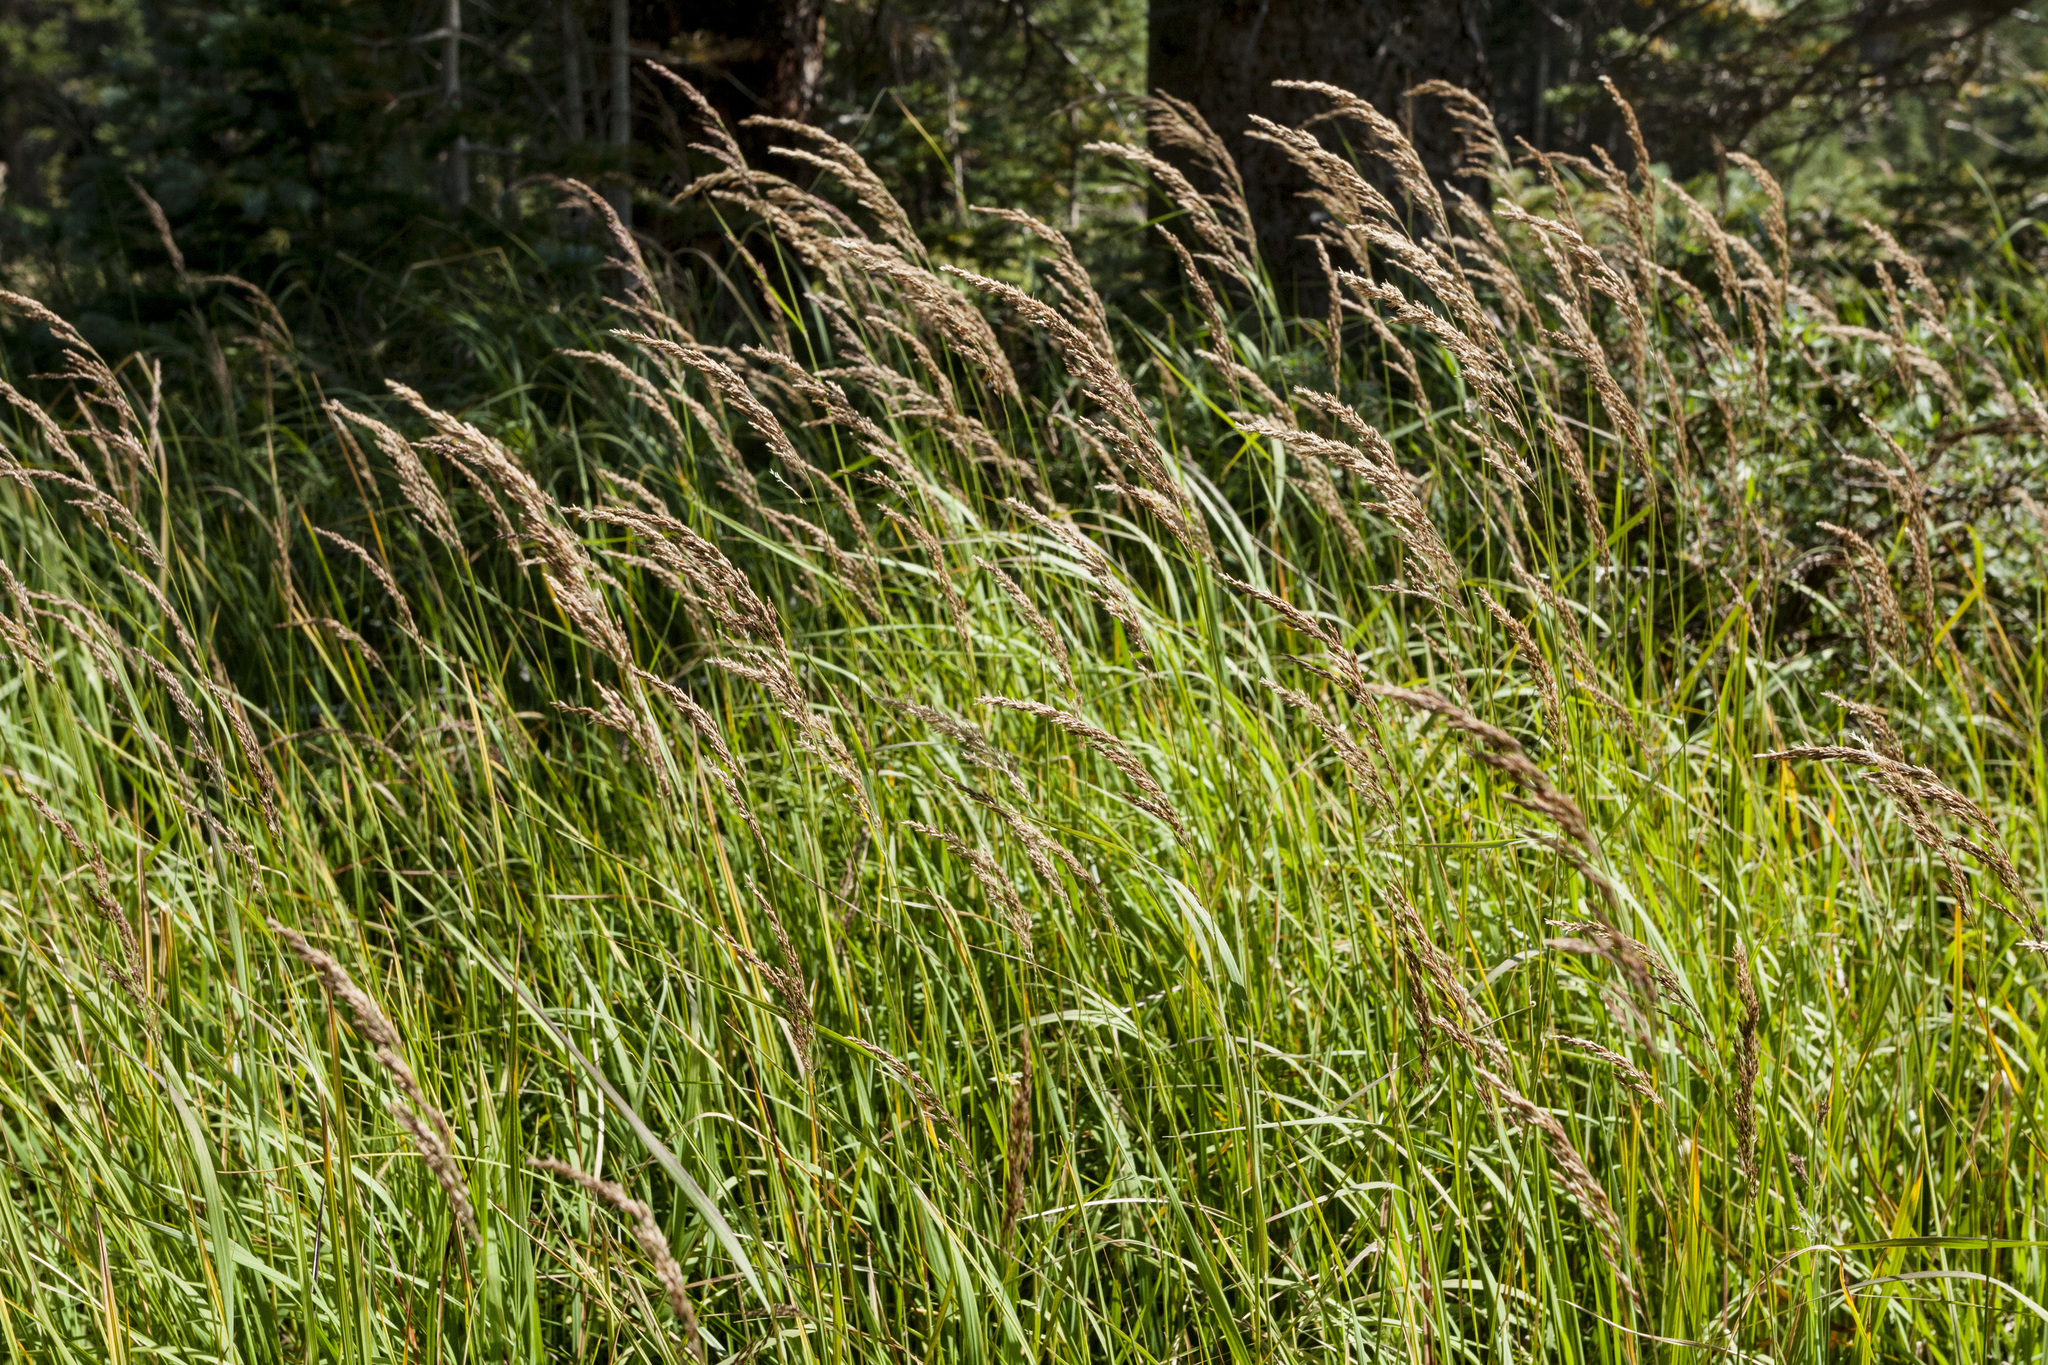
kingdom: Plantae
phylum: Tracheophyta
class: Liliopsida
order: Poales
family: Poaceae
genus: Calamagrostis
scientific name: Calamagrostis canadensis
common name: Canada bluejoint
